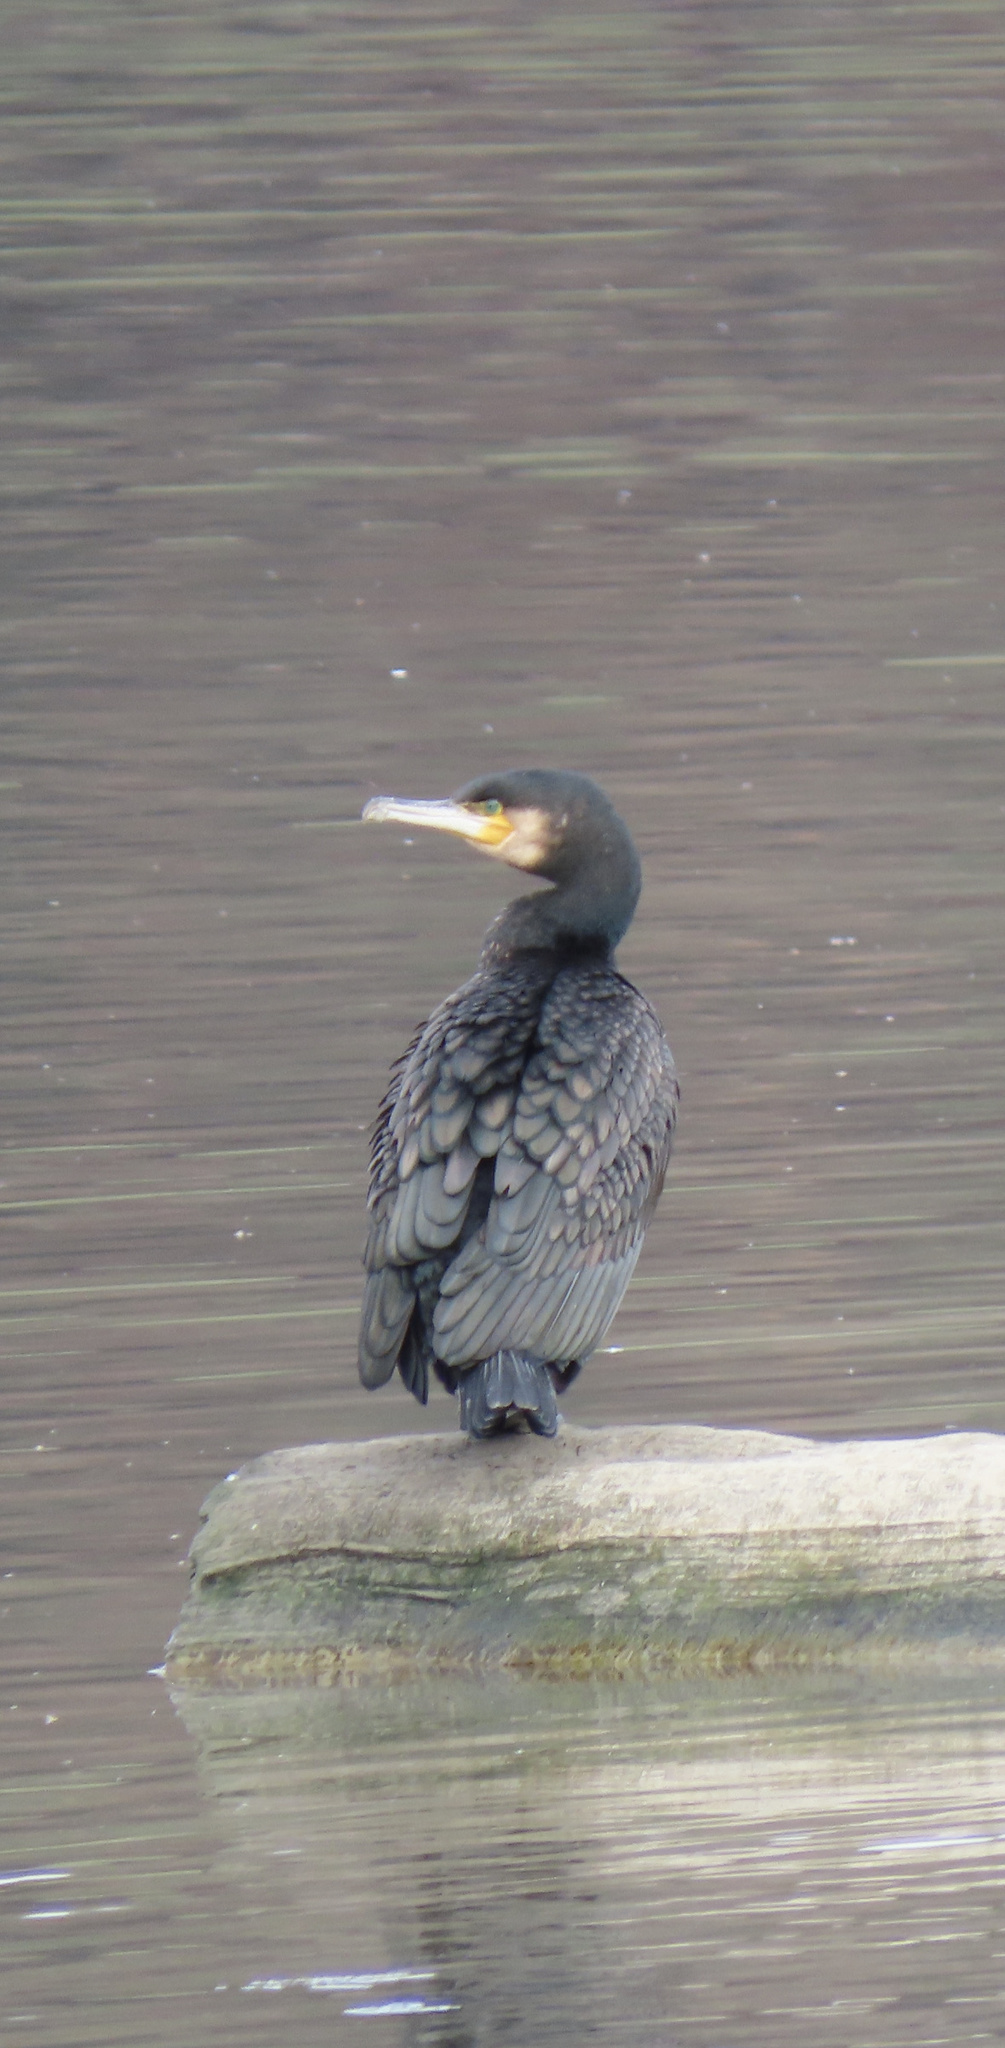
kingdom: Animalia
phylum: Chordata
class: Aves
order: Suliformes
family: Phalacrocoracidae
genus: Phalacrocorax
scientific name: Phalacrocorax carbo
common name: Great cormorant
